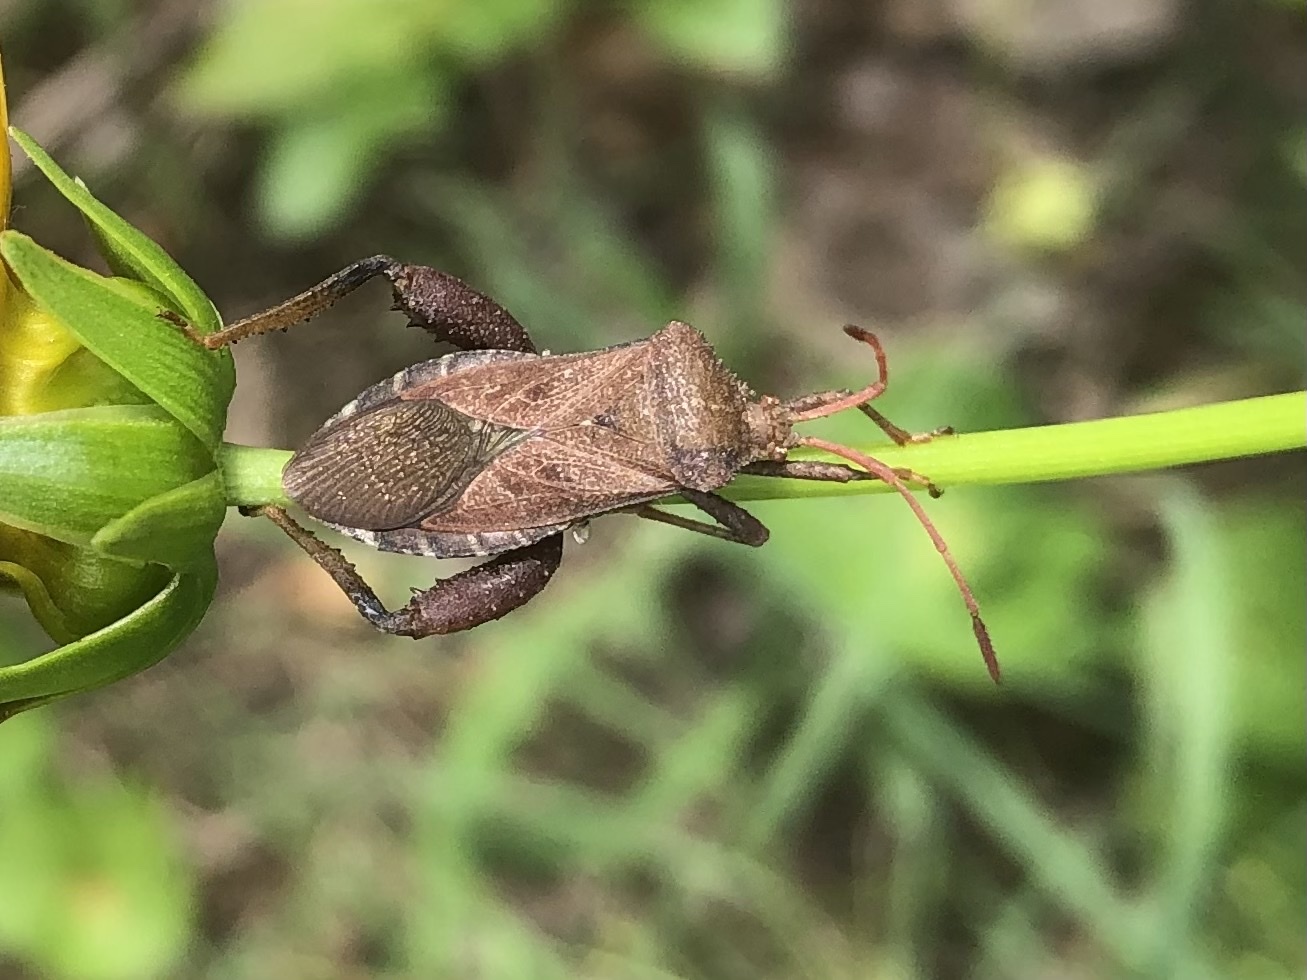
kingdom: Animalia
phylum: Arthropoda
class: Insecta
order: Hemiptera
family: Coreidae
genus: Euthochtha
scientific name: Euthochtha galeator
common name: Helmeted squash bug
